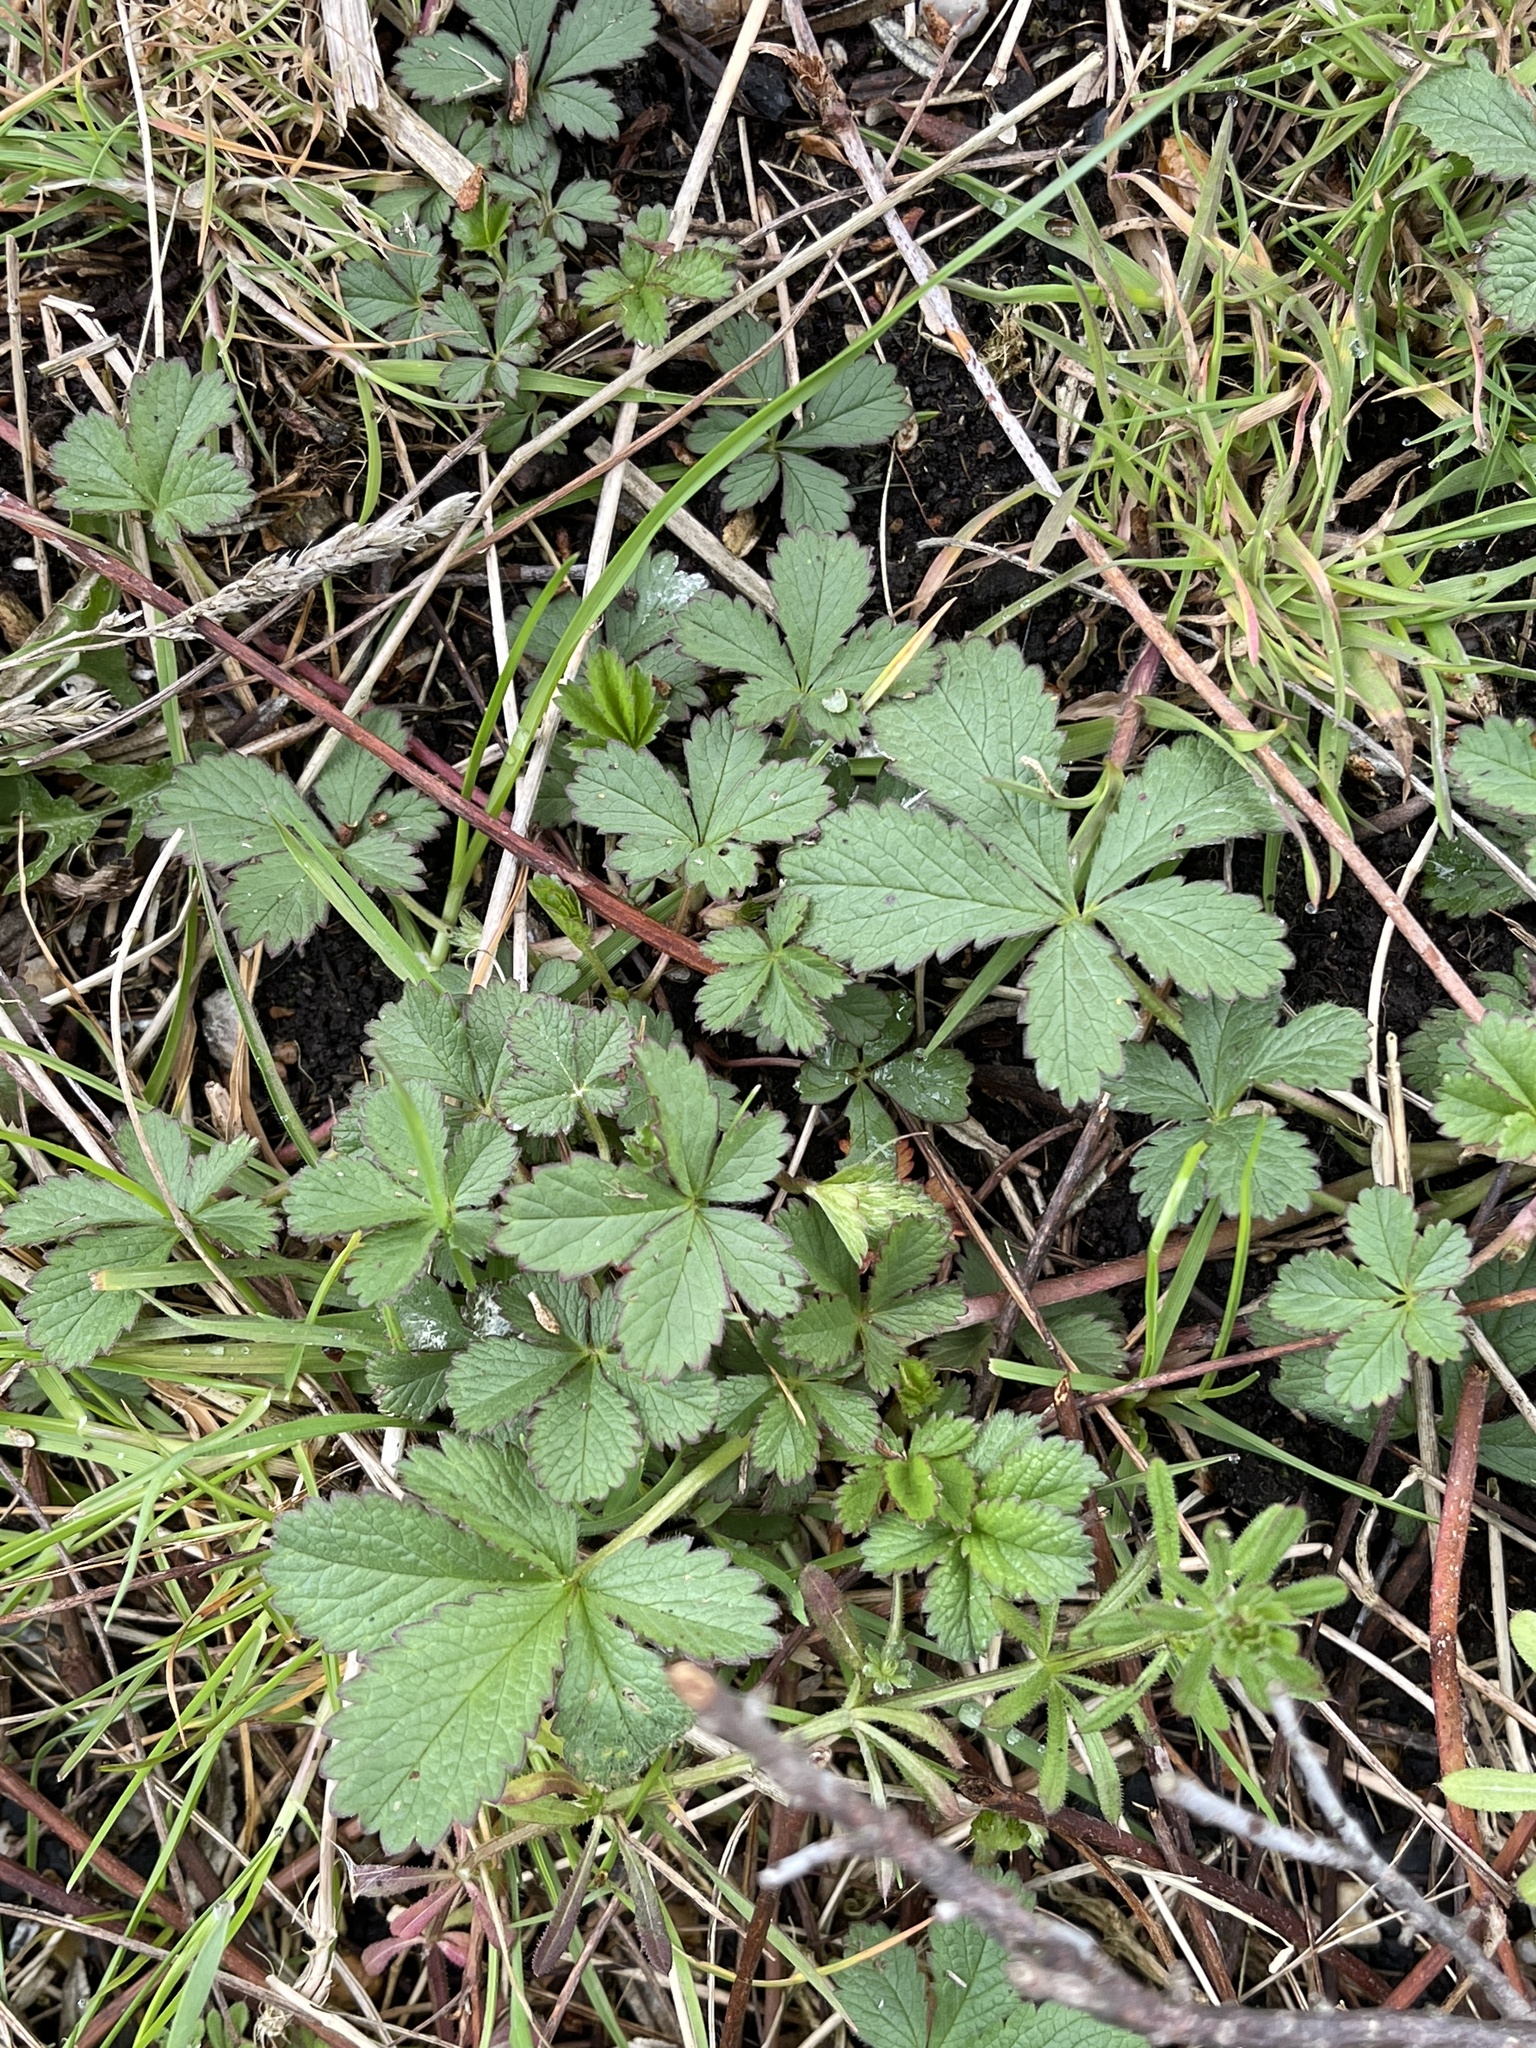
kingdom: Plantae
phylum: Tracheophyta
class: Magnoliopsida
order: Rosales
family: Rosaceae
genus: Potentilla
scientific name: Potentilla reptans
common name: Creeping cinquefoil
